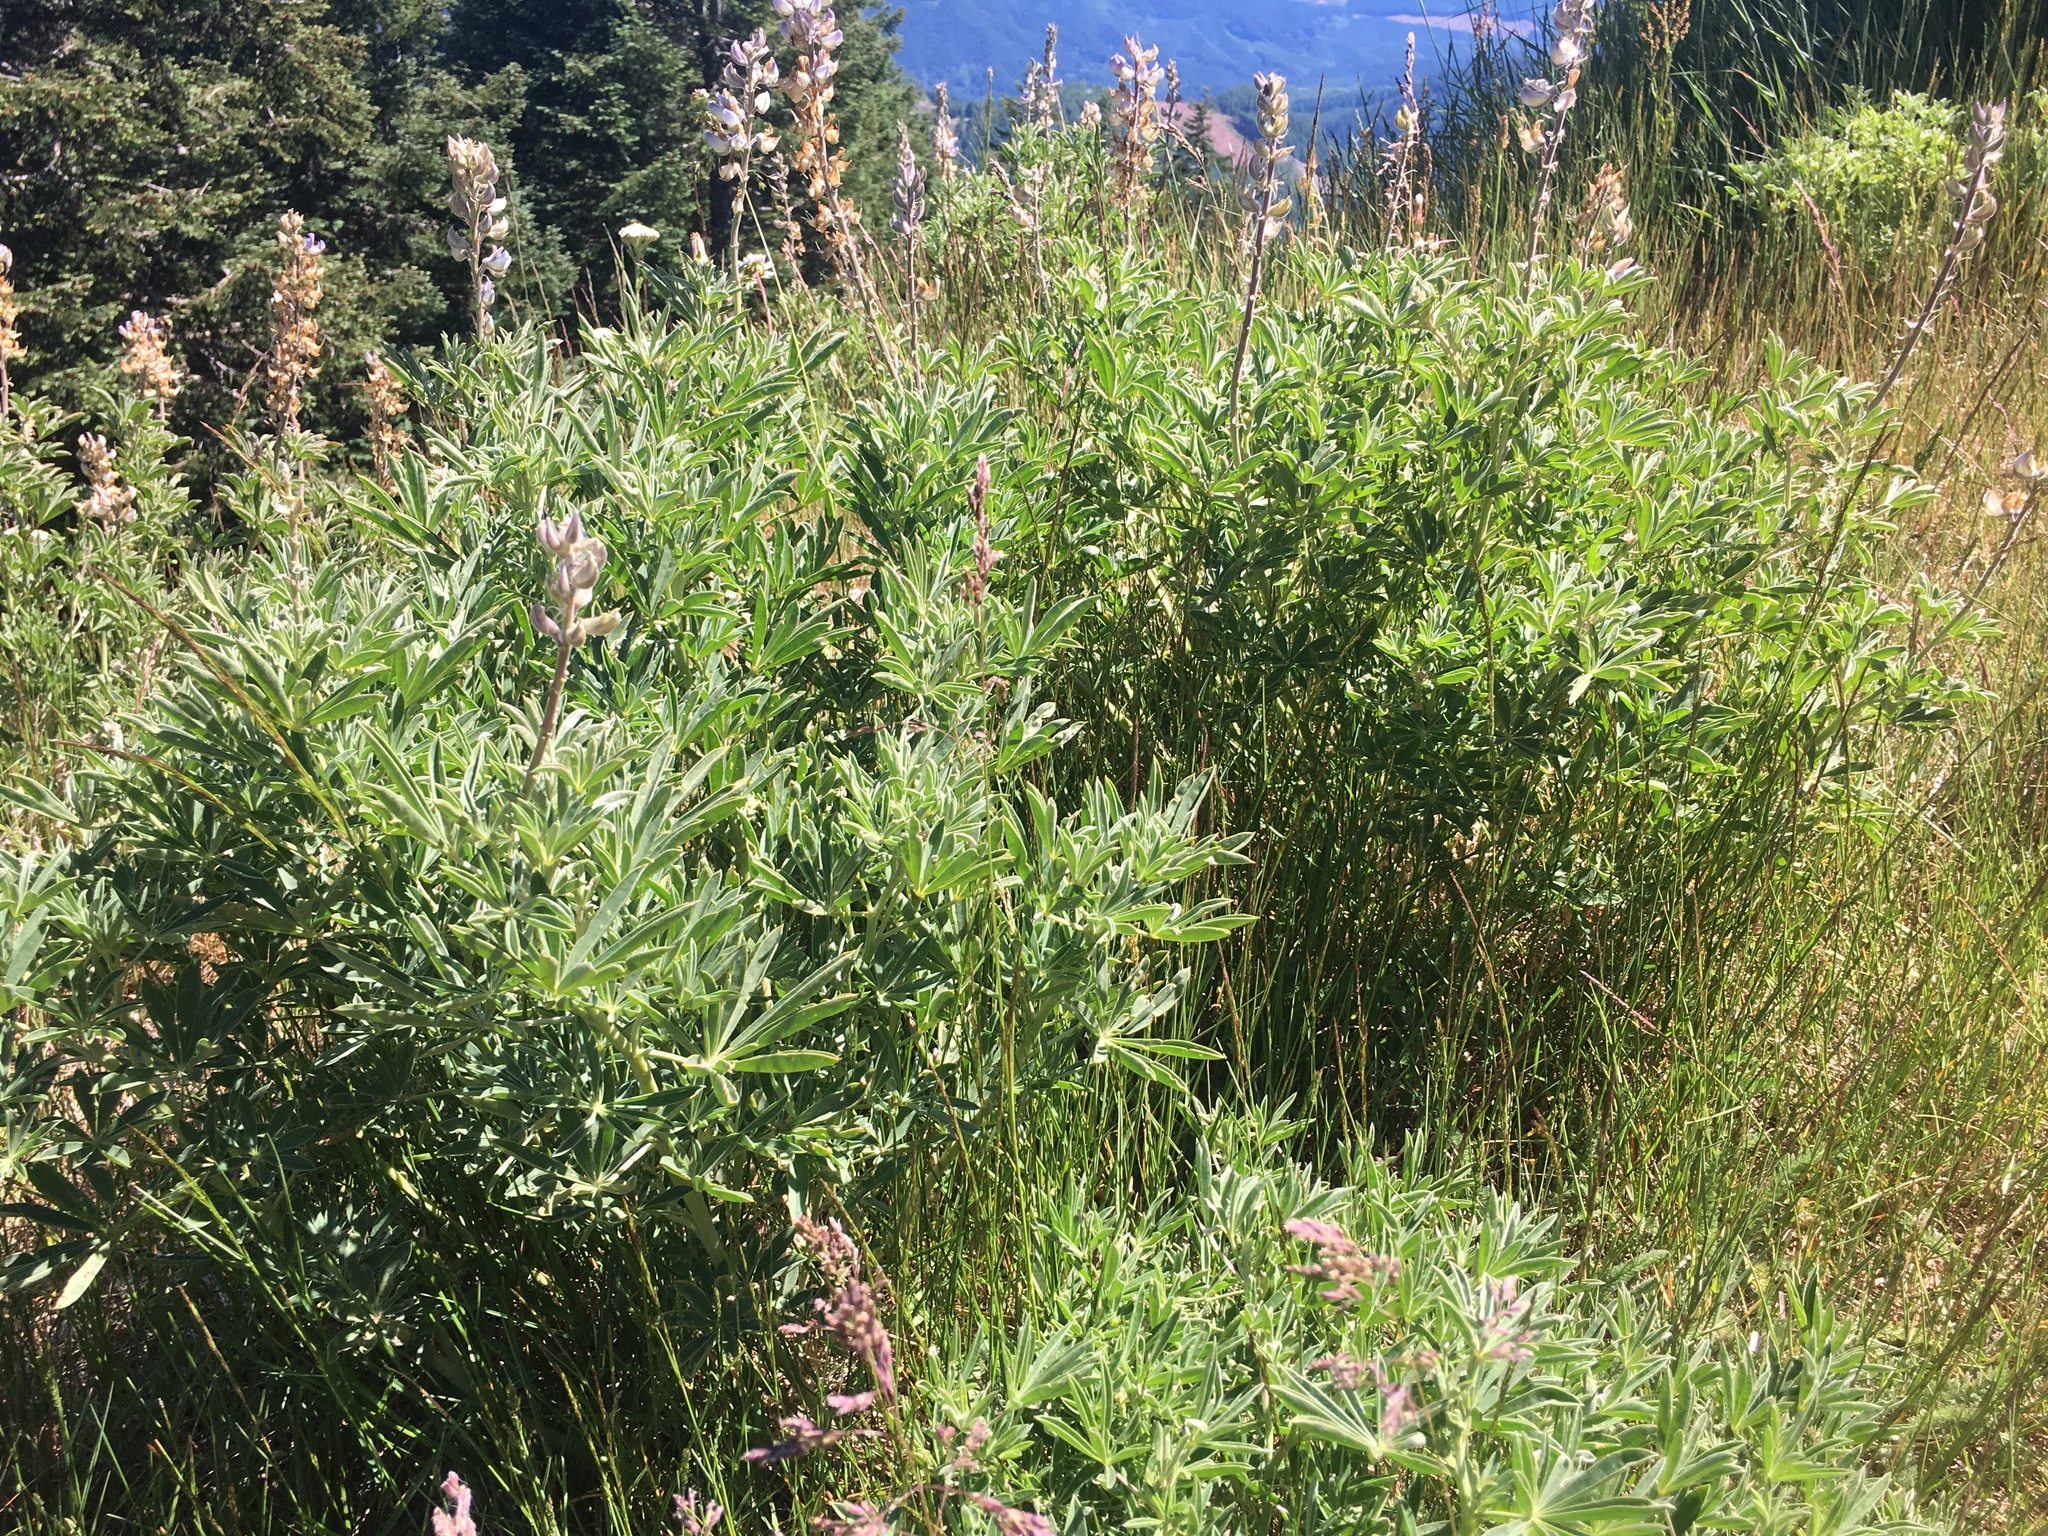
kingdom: Plantae
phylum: Tracheophyta
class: Magnoliopsida
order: Fabales
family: Fabaceae
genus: Lupinus
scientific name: Lupinus albicaulis
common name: Pine lupine
